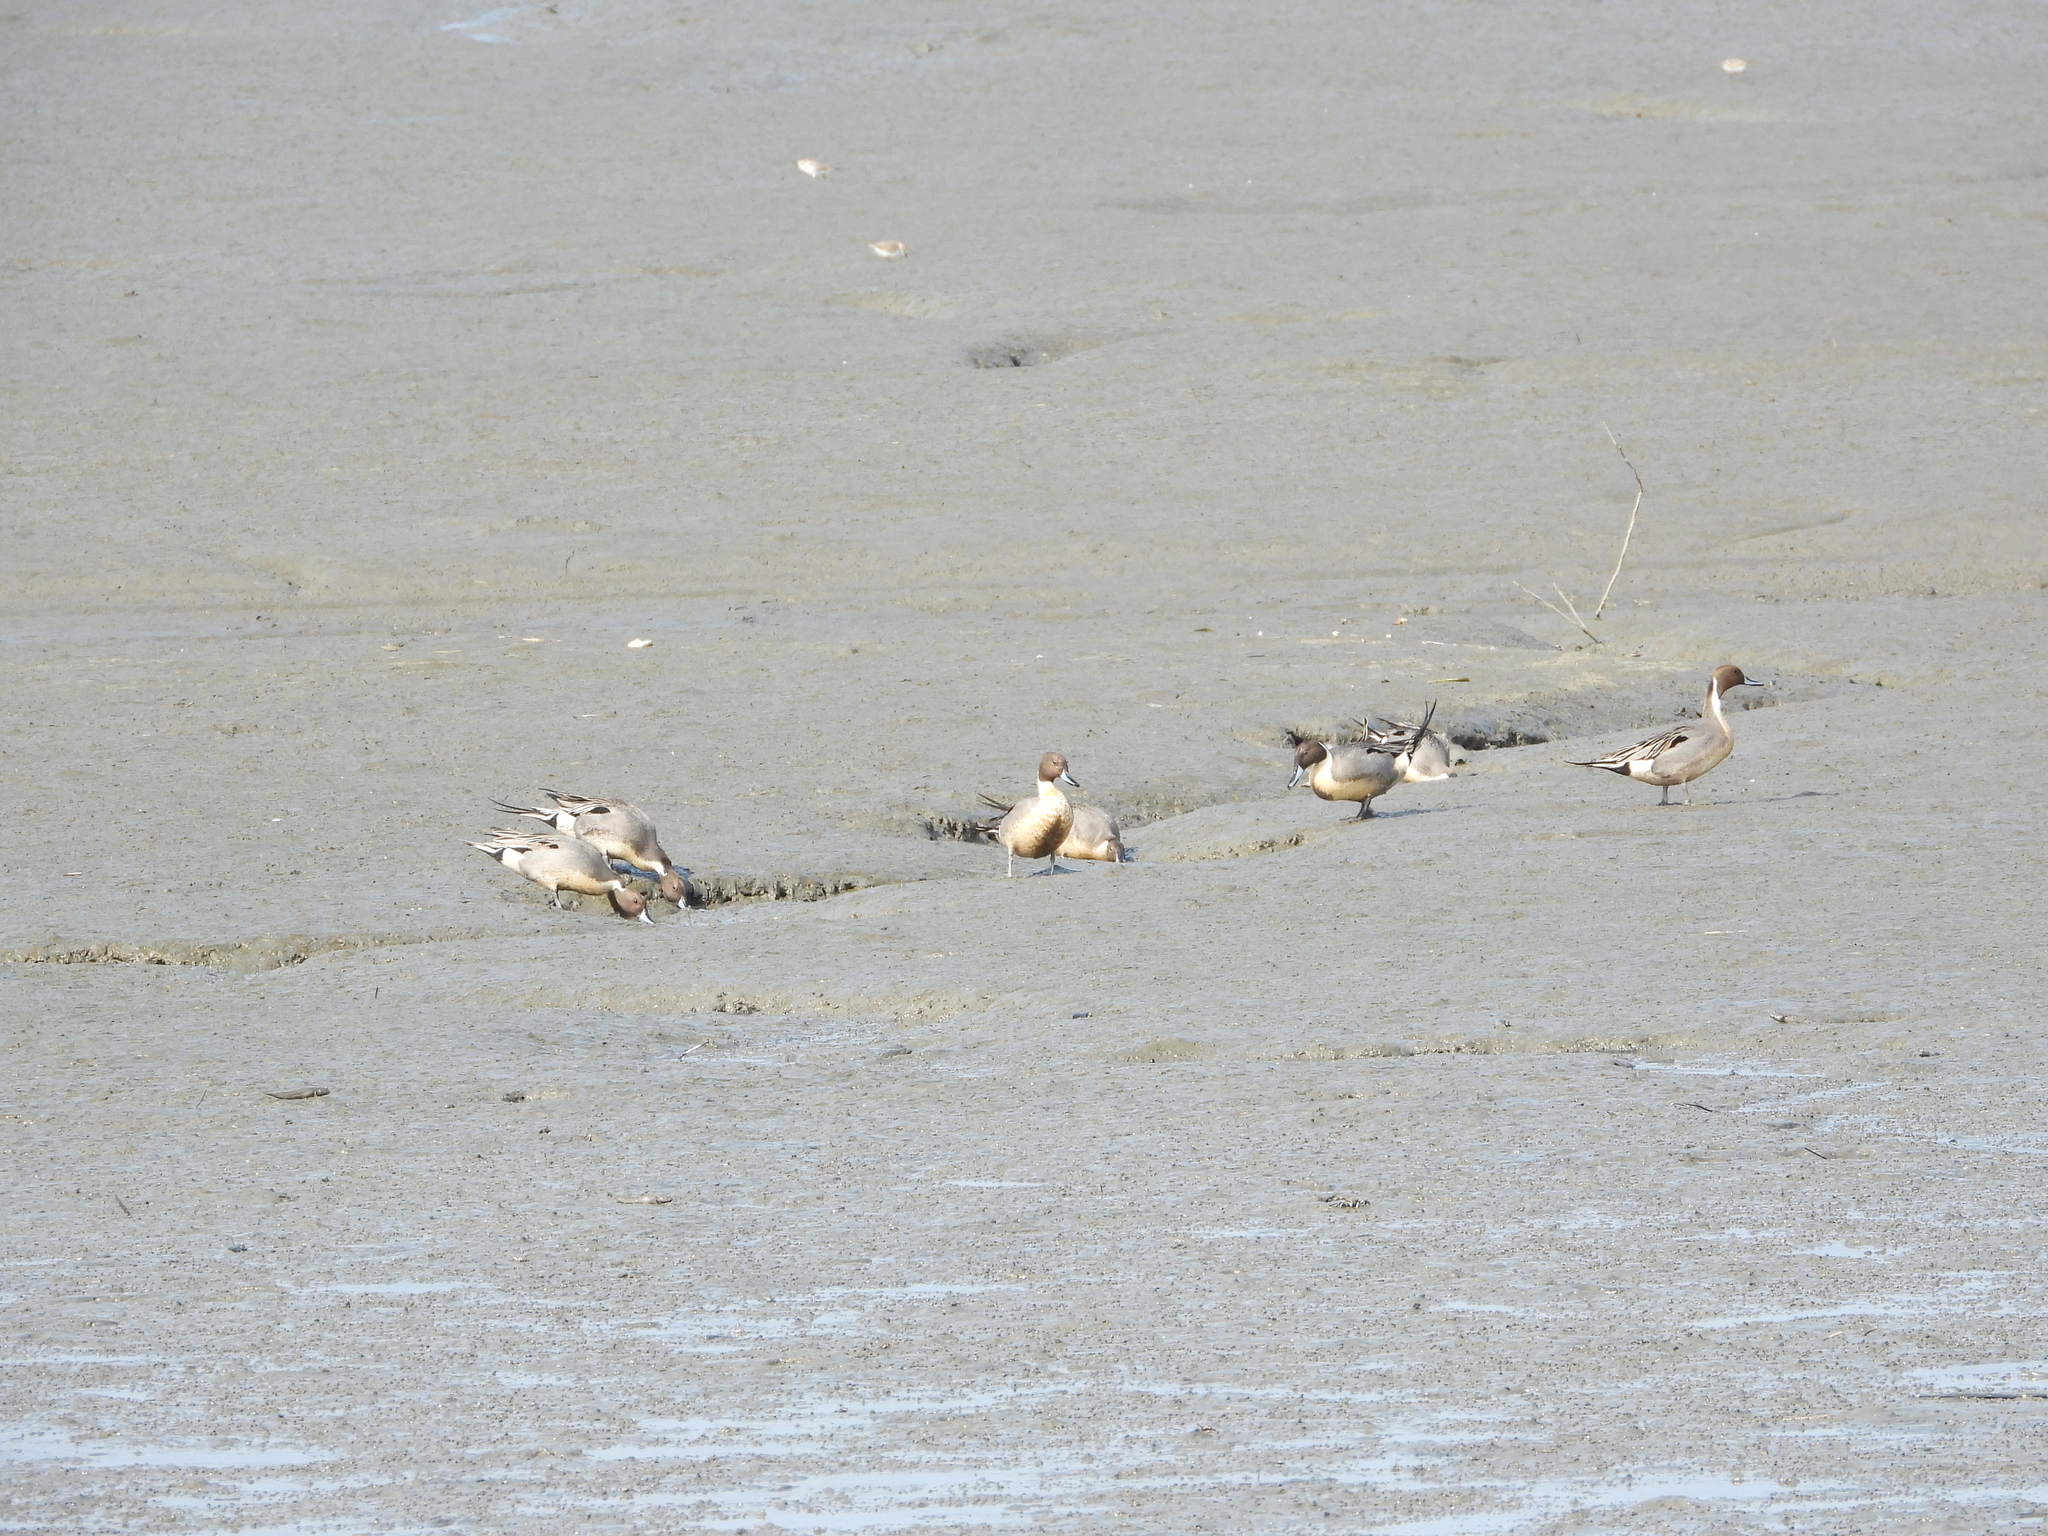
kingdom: Animalia
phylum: Chordata
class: Aves
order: Anseriformes
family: Anatidae
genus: Anas
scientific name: Anas acuta
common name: Northern pintail
